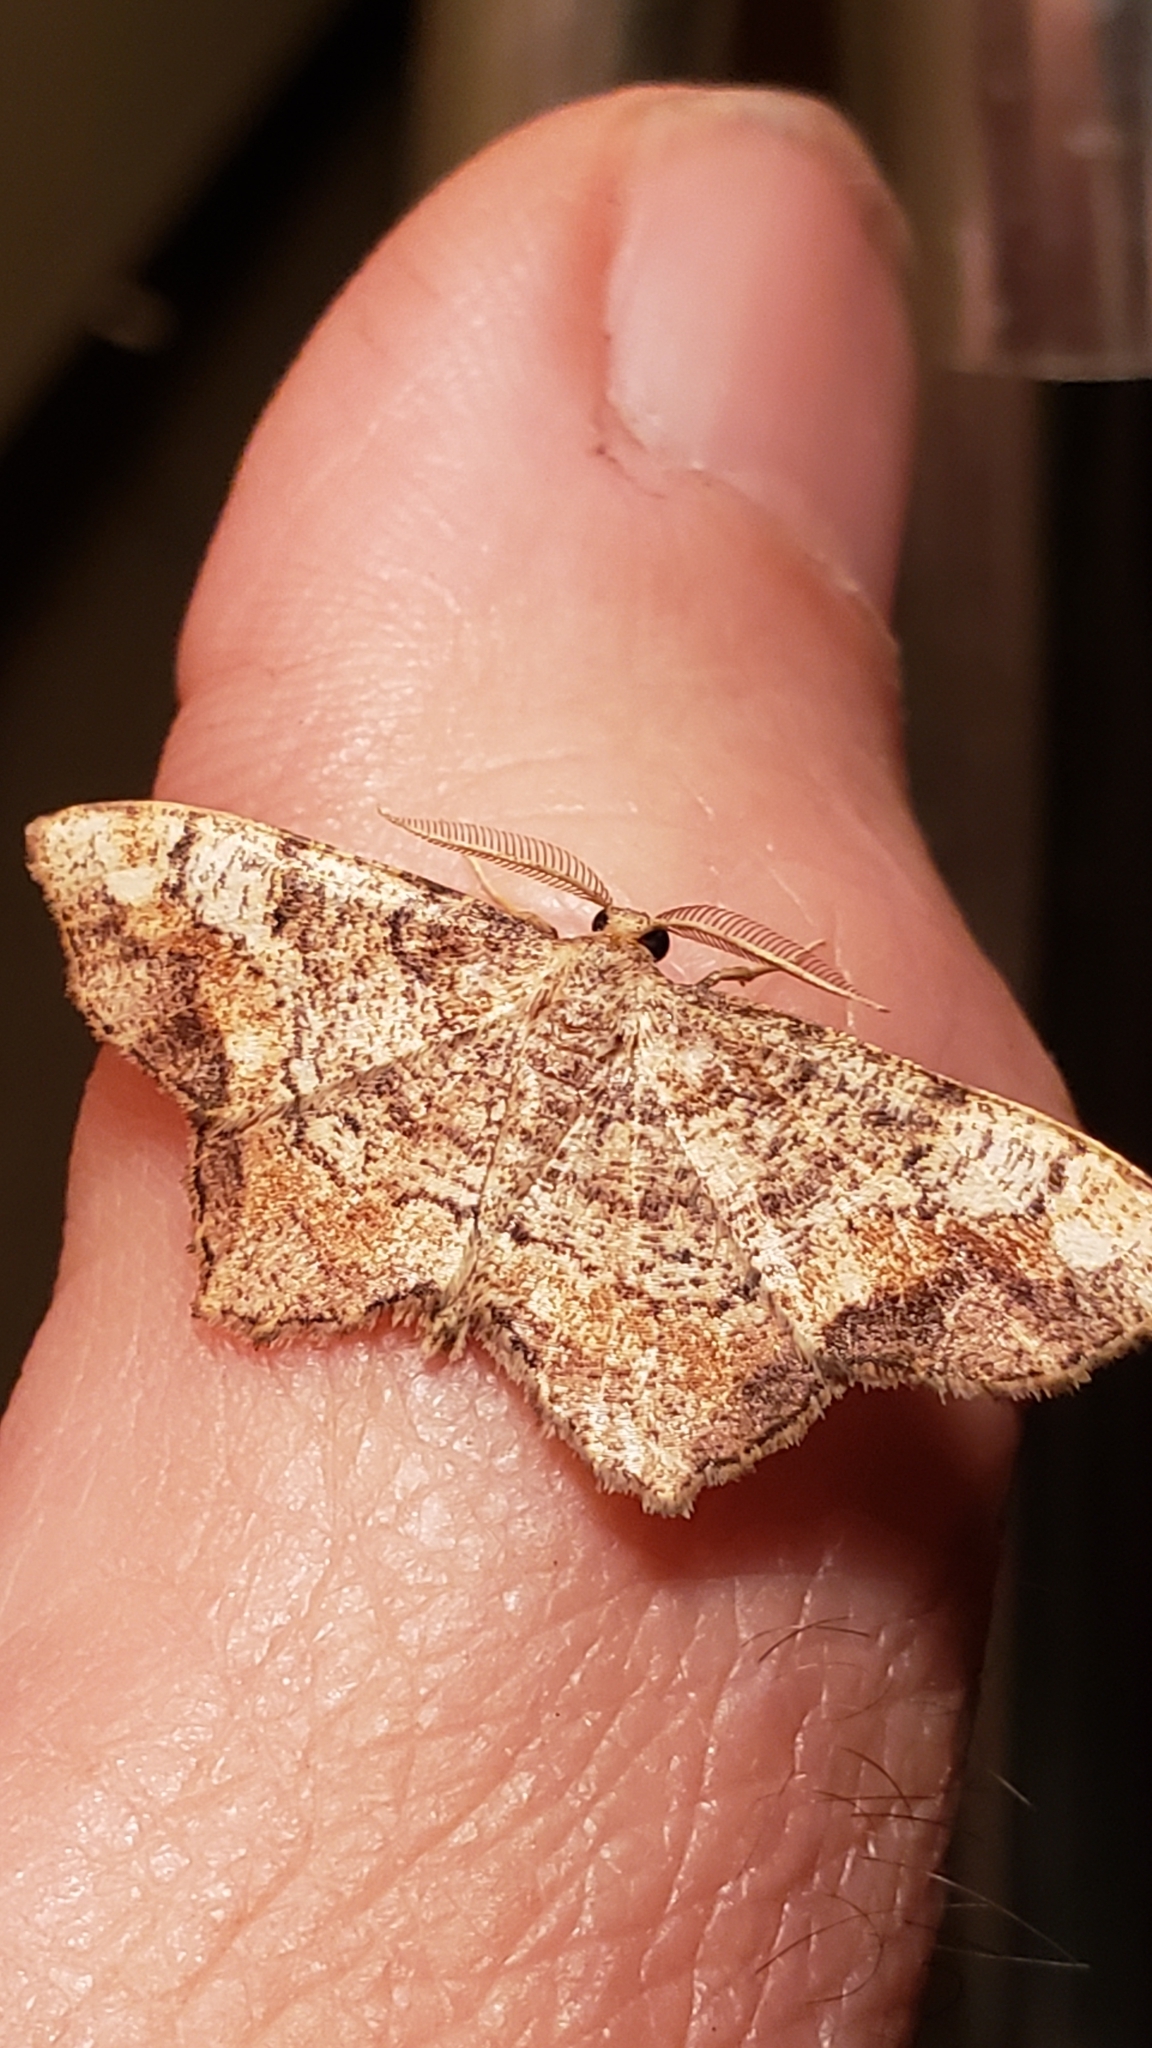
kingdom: Animalia
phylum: Arthropoda
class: Insecta
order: Lepidoptera
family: Geometridae
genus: Hypagyrtis
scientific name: Hypagyrtis unipunctata
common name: One-spotted variant
